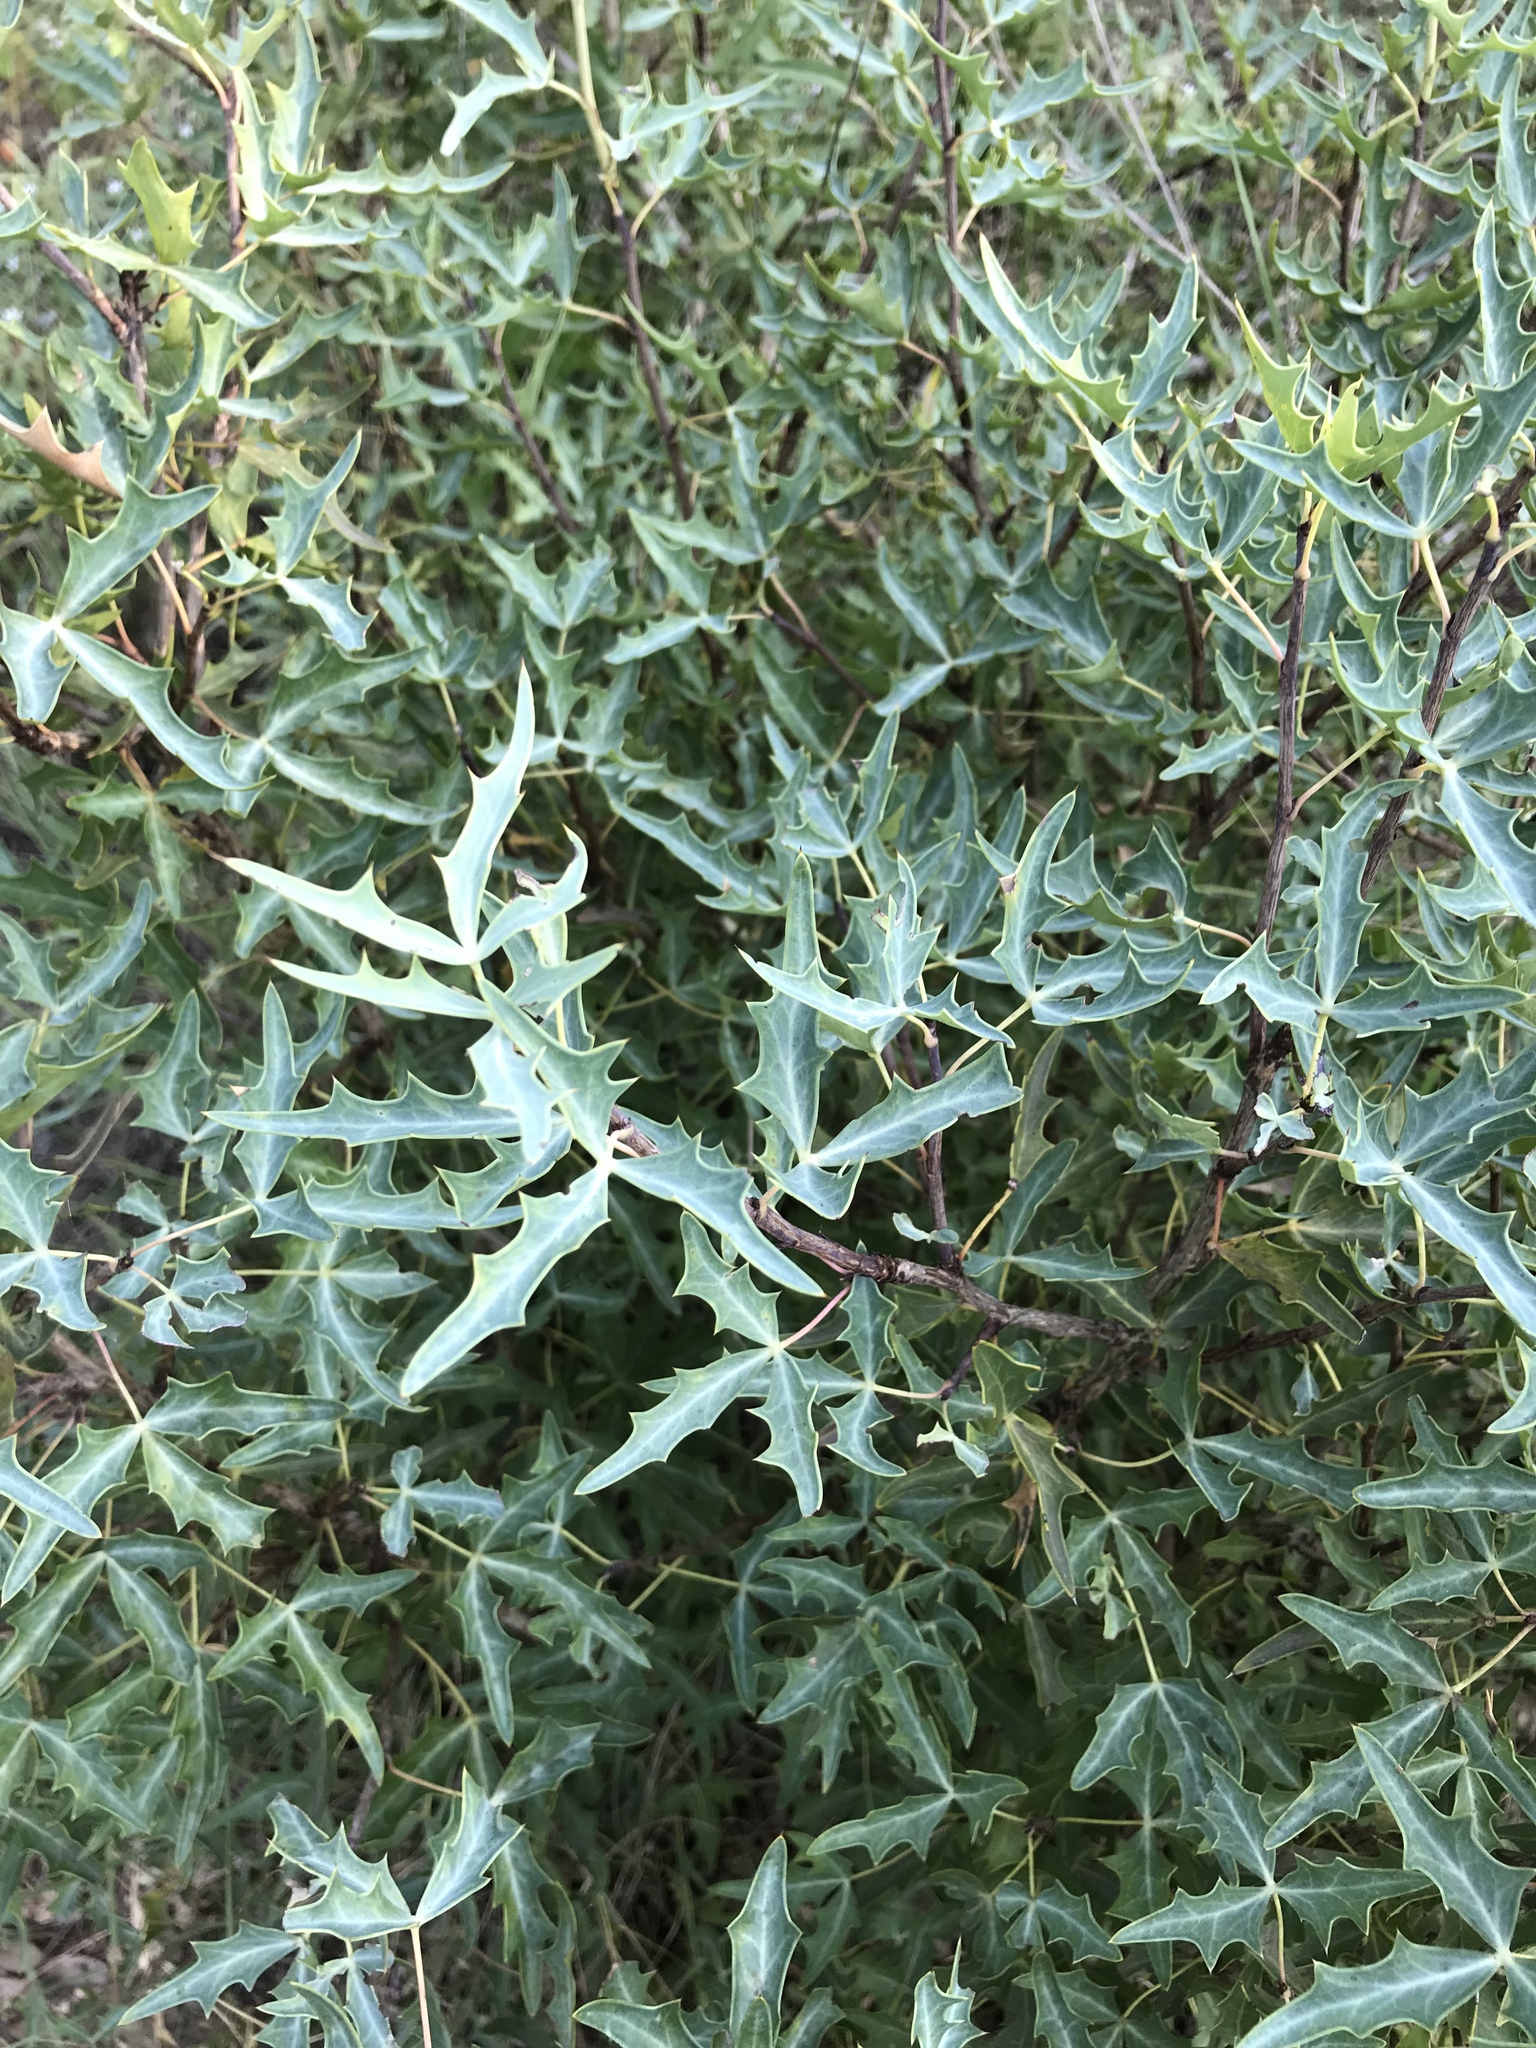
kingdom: Plantae
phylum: Tracheophyta
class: Magnoliopsida
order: Ranunculales
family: Berberidaceae
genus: Alloberberis
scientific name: Alloberberis trifoliolata
